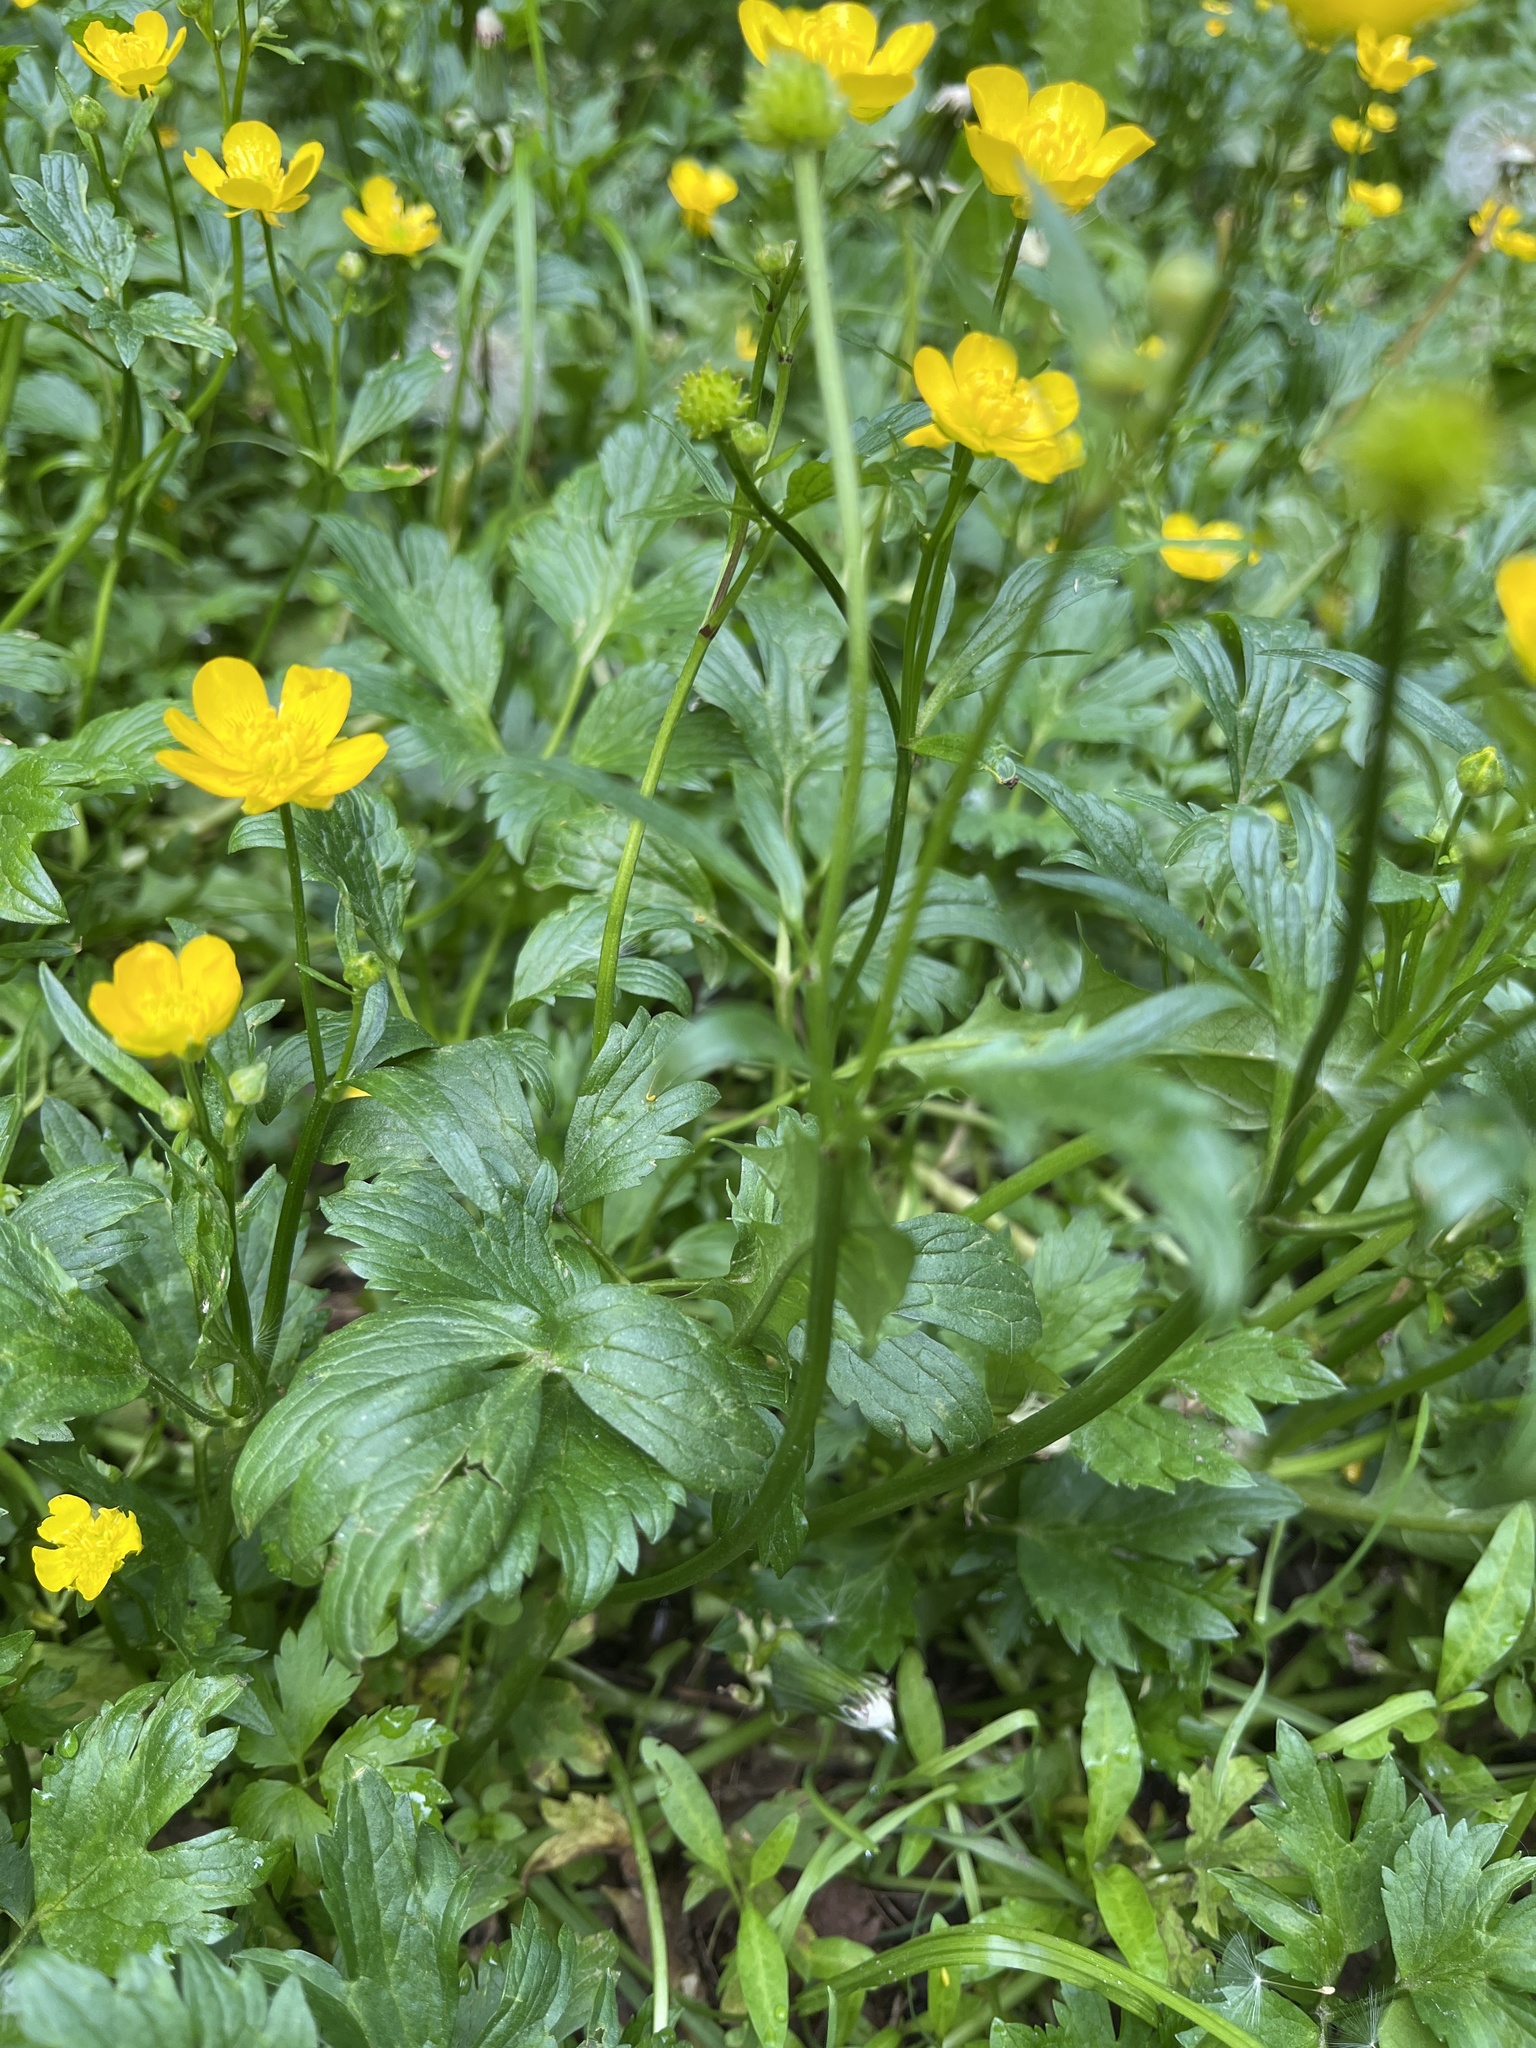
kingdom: Plantae
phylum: Tracheophyta
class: Magnoliopsida
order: Ranunculales
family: Ranunculaceae
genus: Ranunculus
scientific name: Ranunculus repens
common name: Creeping buttercup
